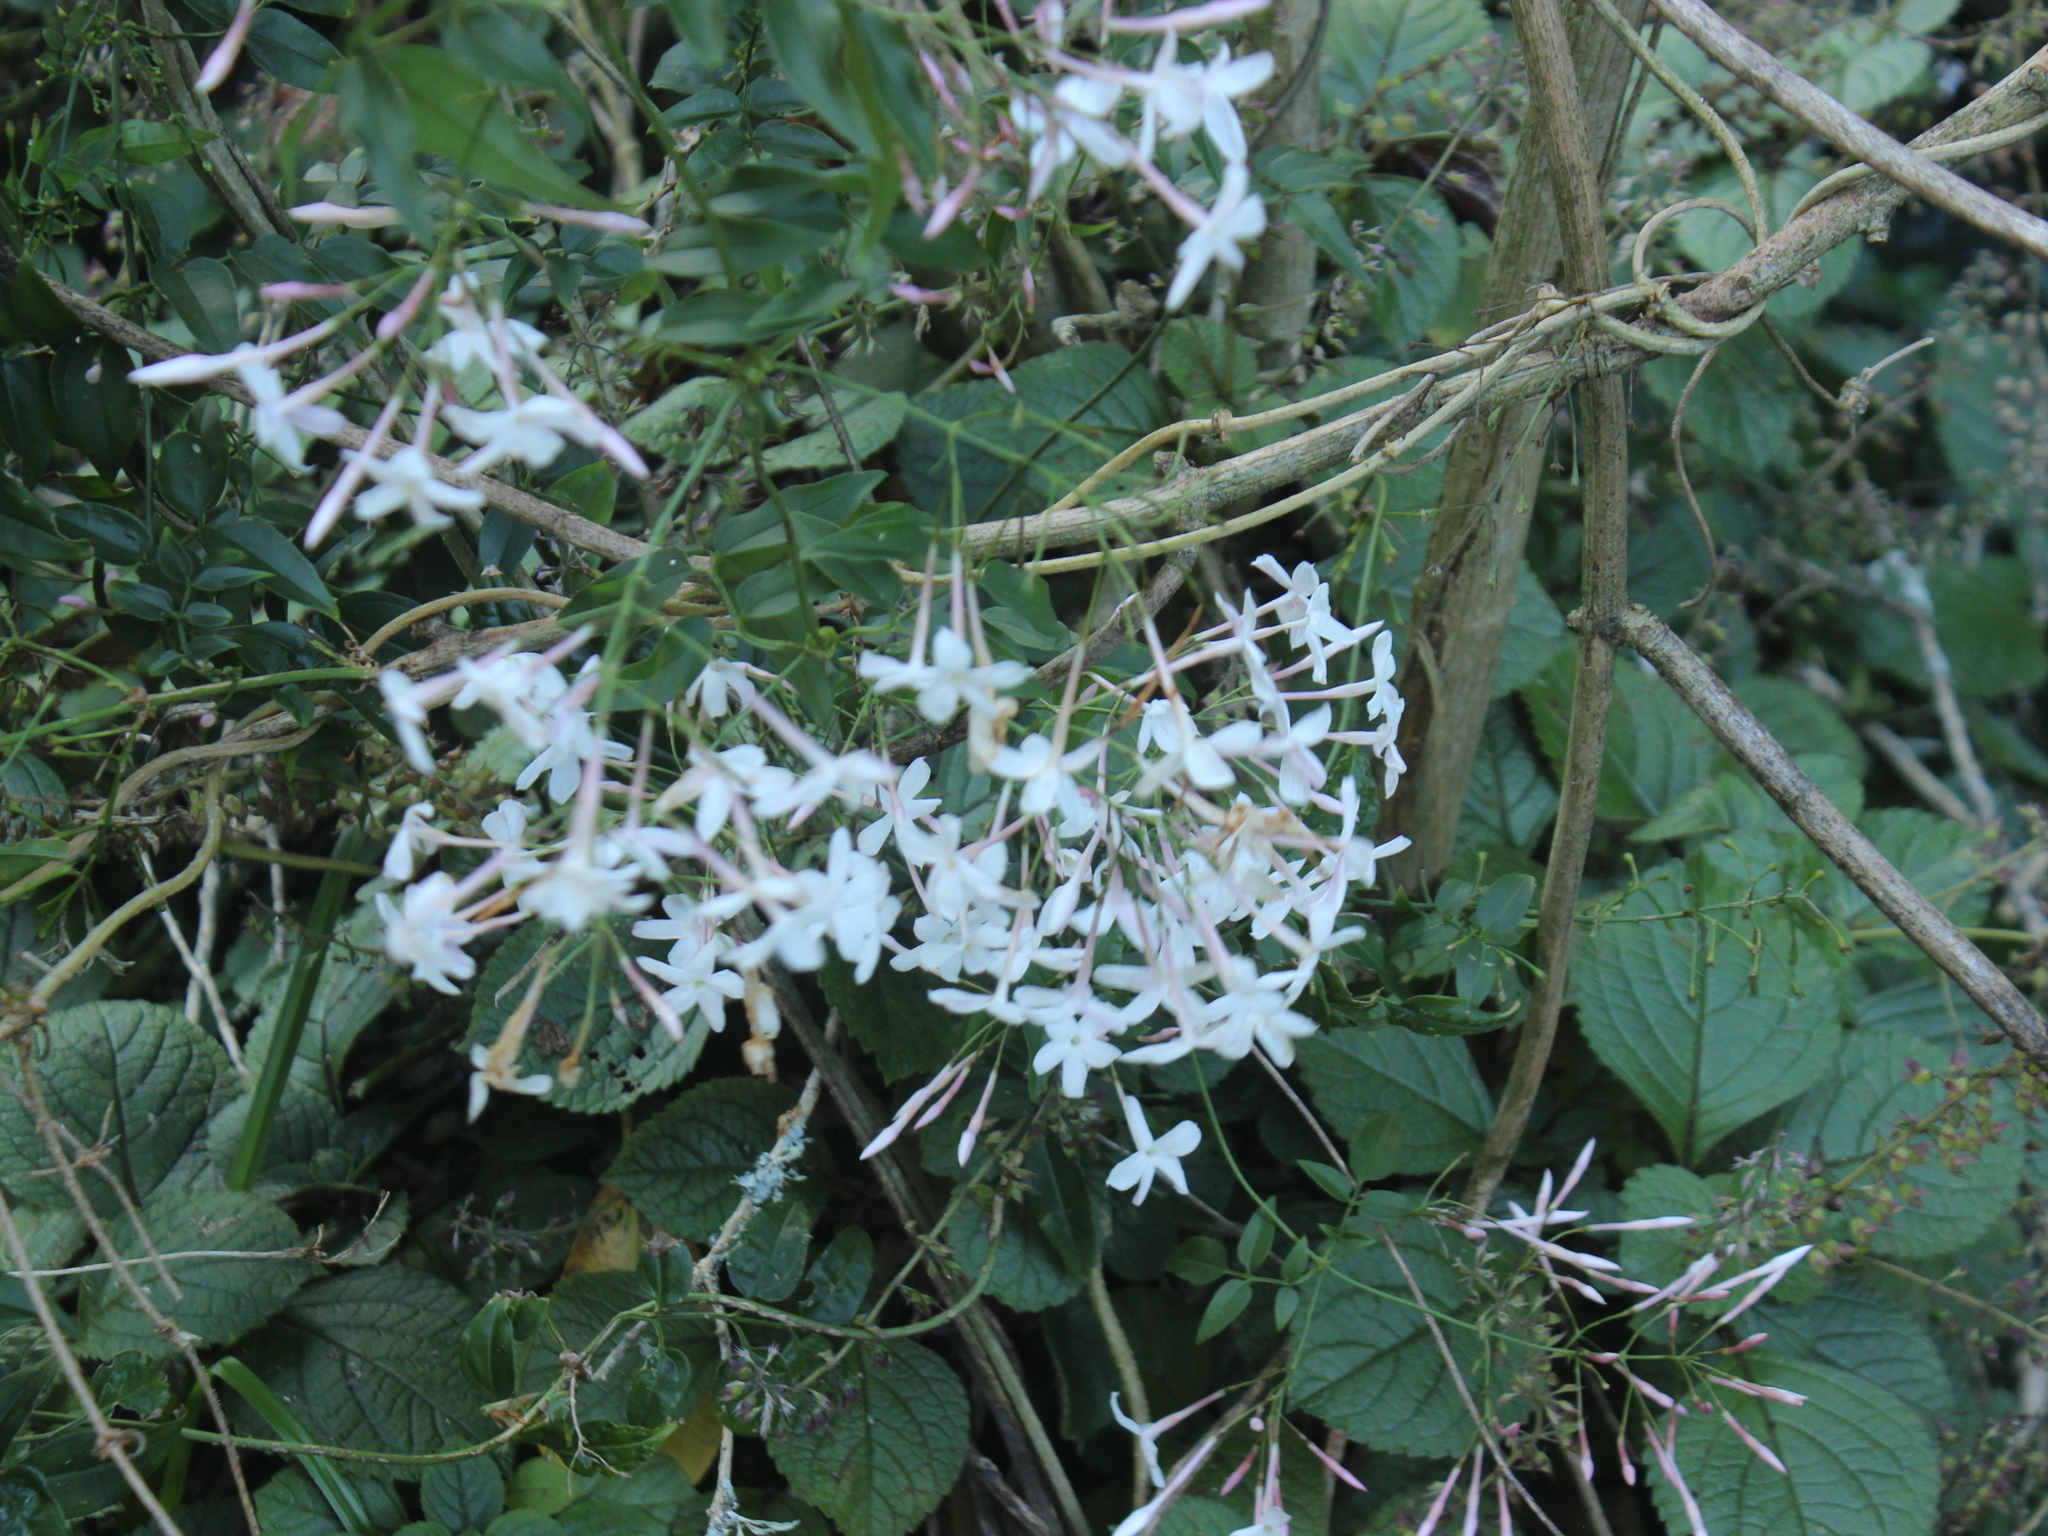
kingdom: Plantae
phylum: Tracheophyta
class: Magnoliopsida
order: Lamiales
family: Oleaceae
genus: Jasminum
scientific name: Jasminum polyanthum
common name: Pink jasmine
